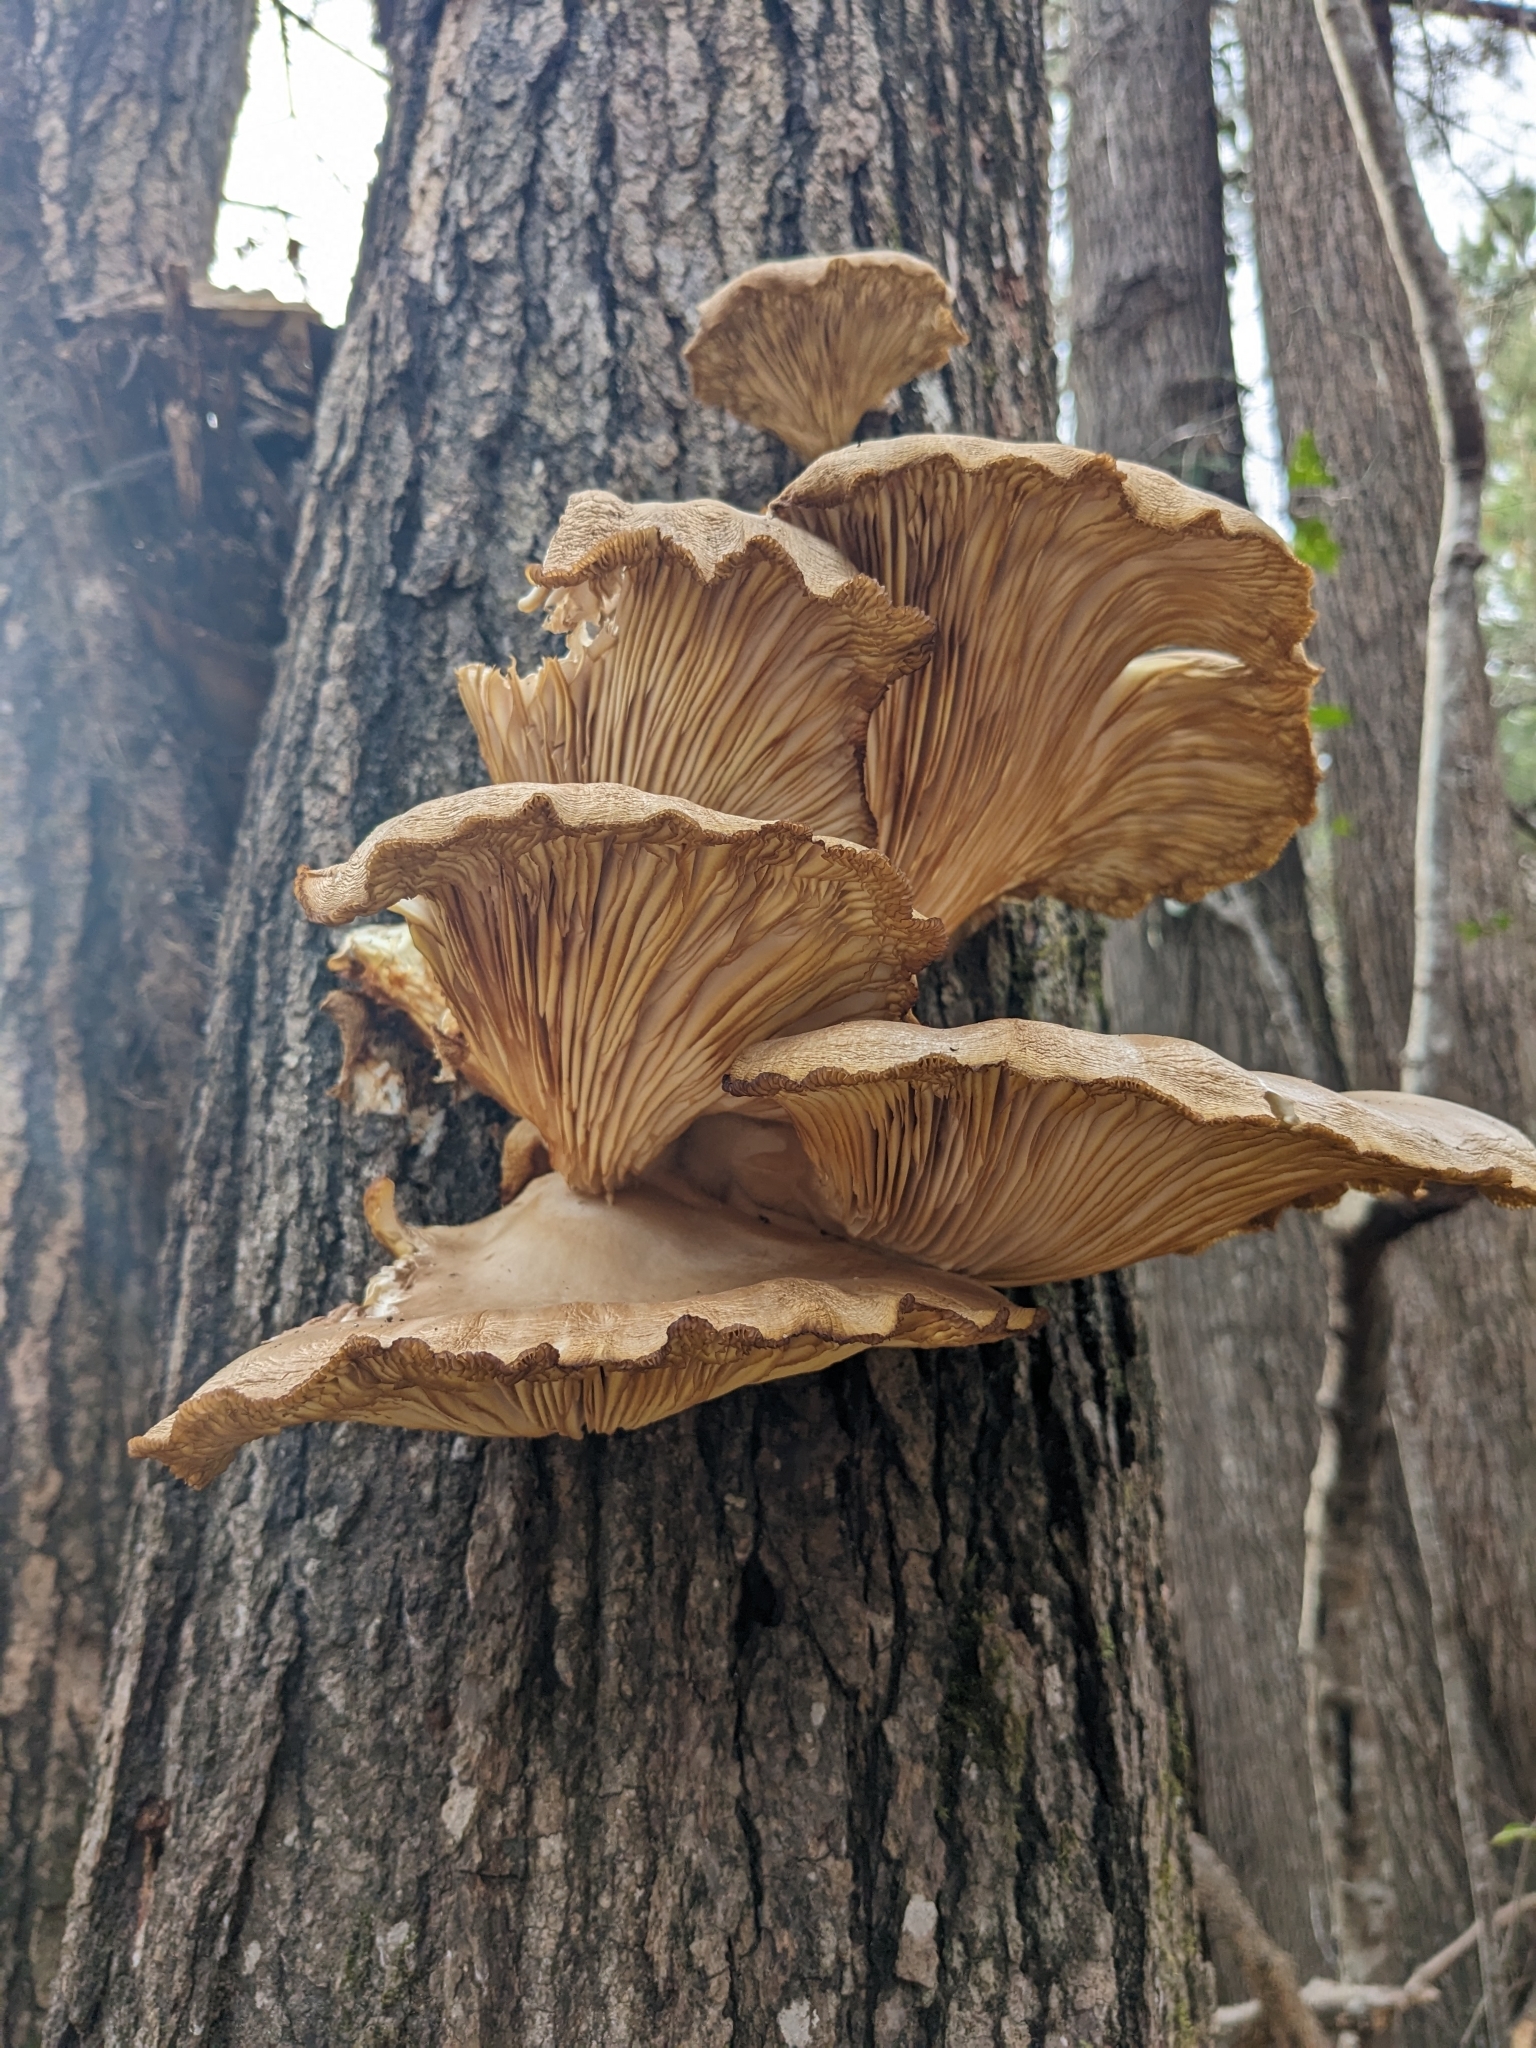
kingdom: Fungi
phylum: Basidiomycota
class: Agaricomycetes
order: Agaricales
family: Pleurotaceae
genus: Pleurotus
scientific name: Pleurotus ostreatus
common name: Oyster mushroom
